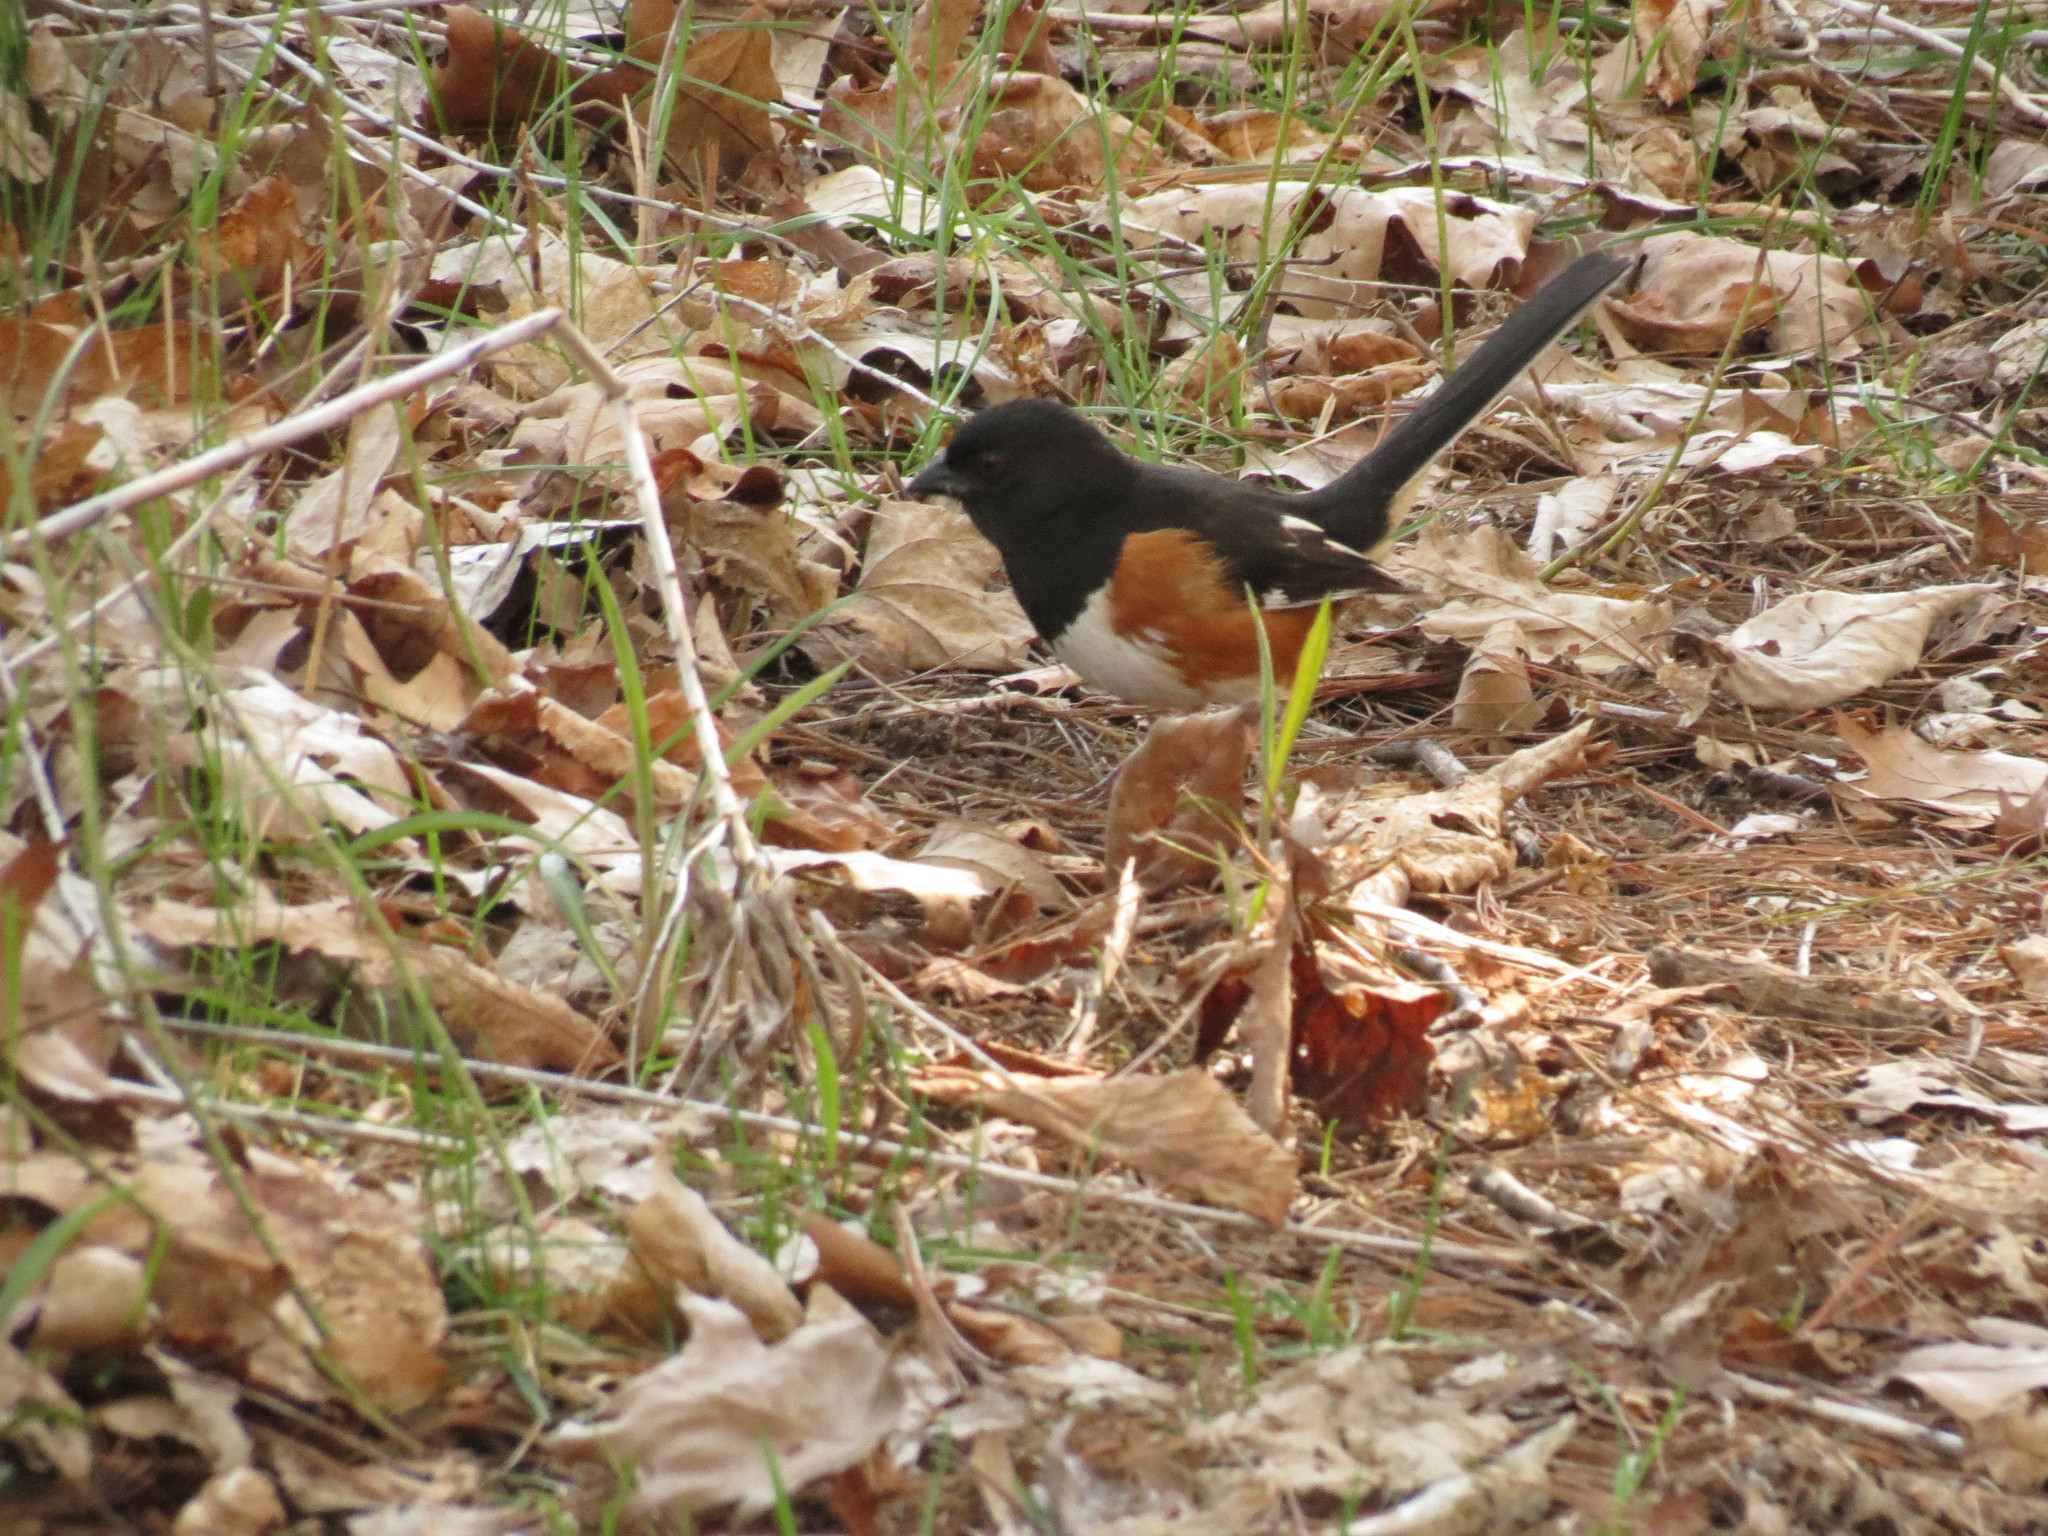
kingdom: Animalia
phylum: Chordata
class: Aves
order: Passeriformes
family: Passerellidae
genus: Pipilo
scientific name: Pipilo erythrophthalmus
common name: Eastern towhee
